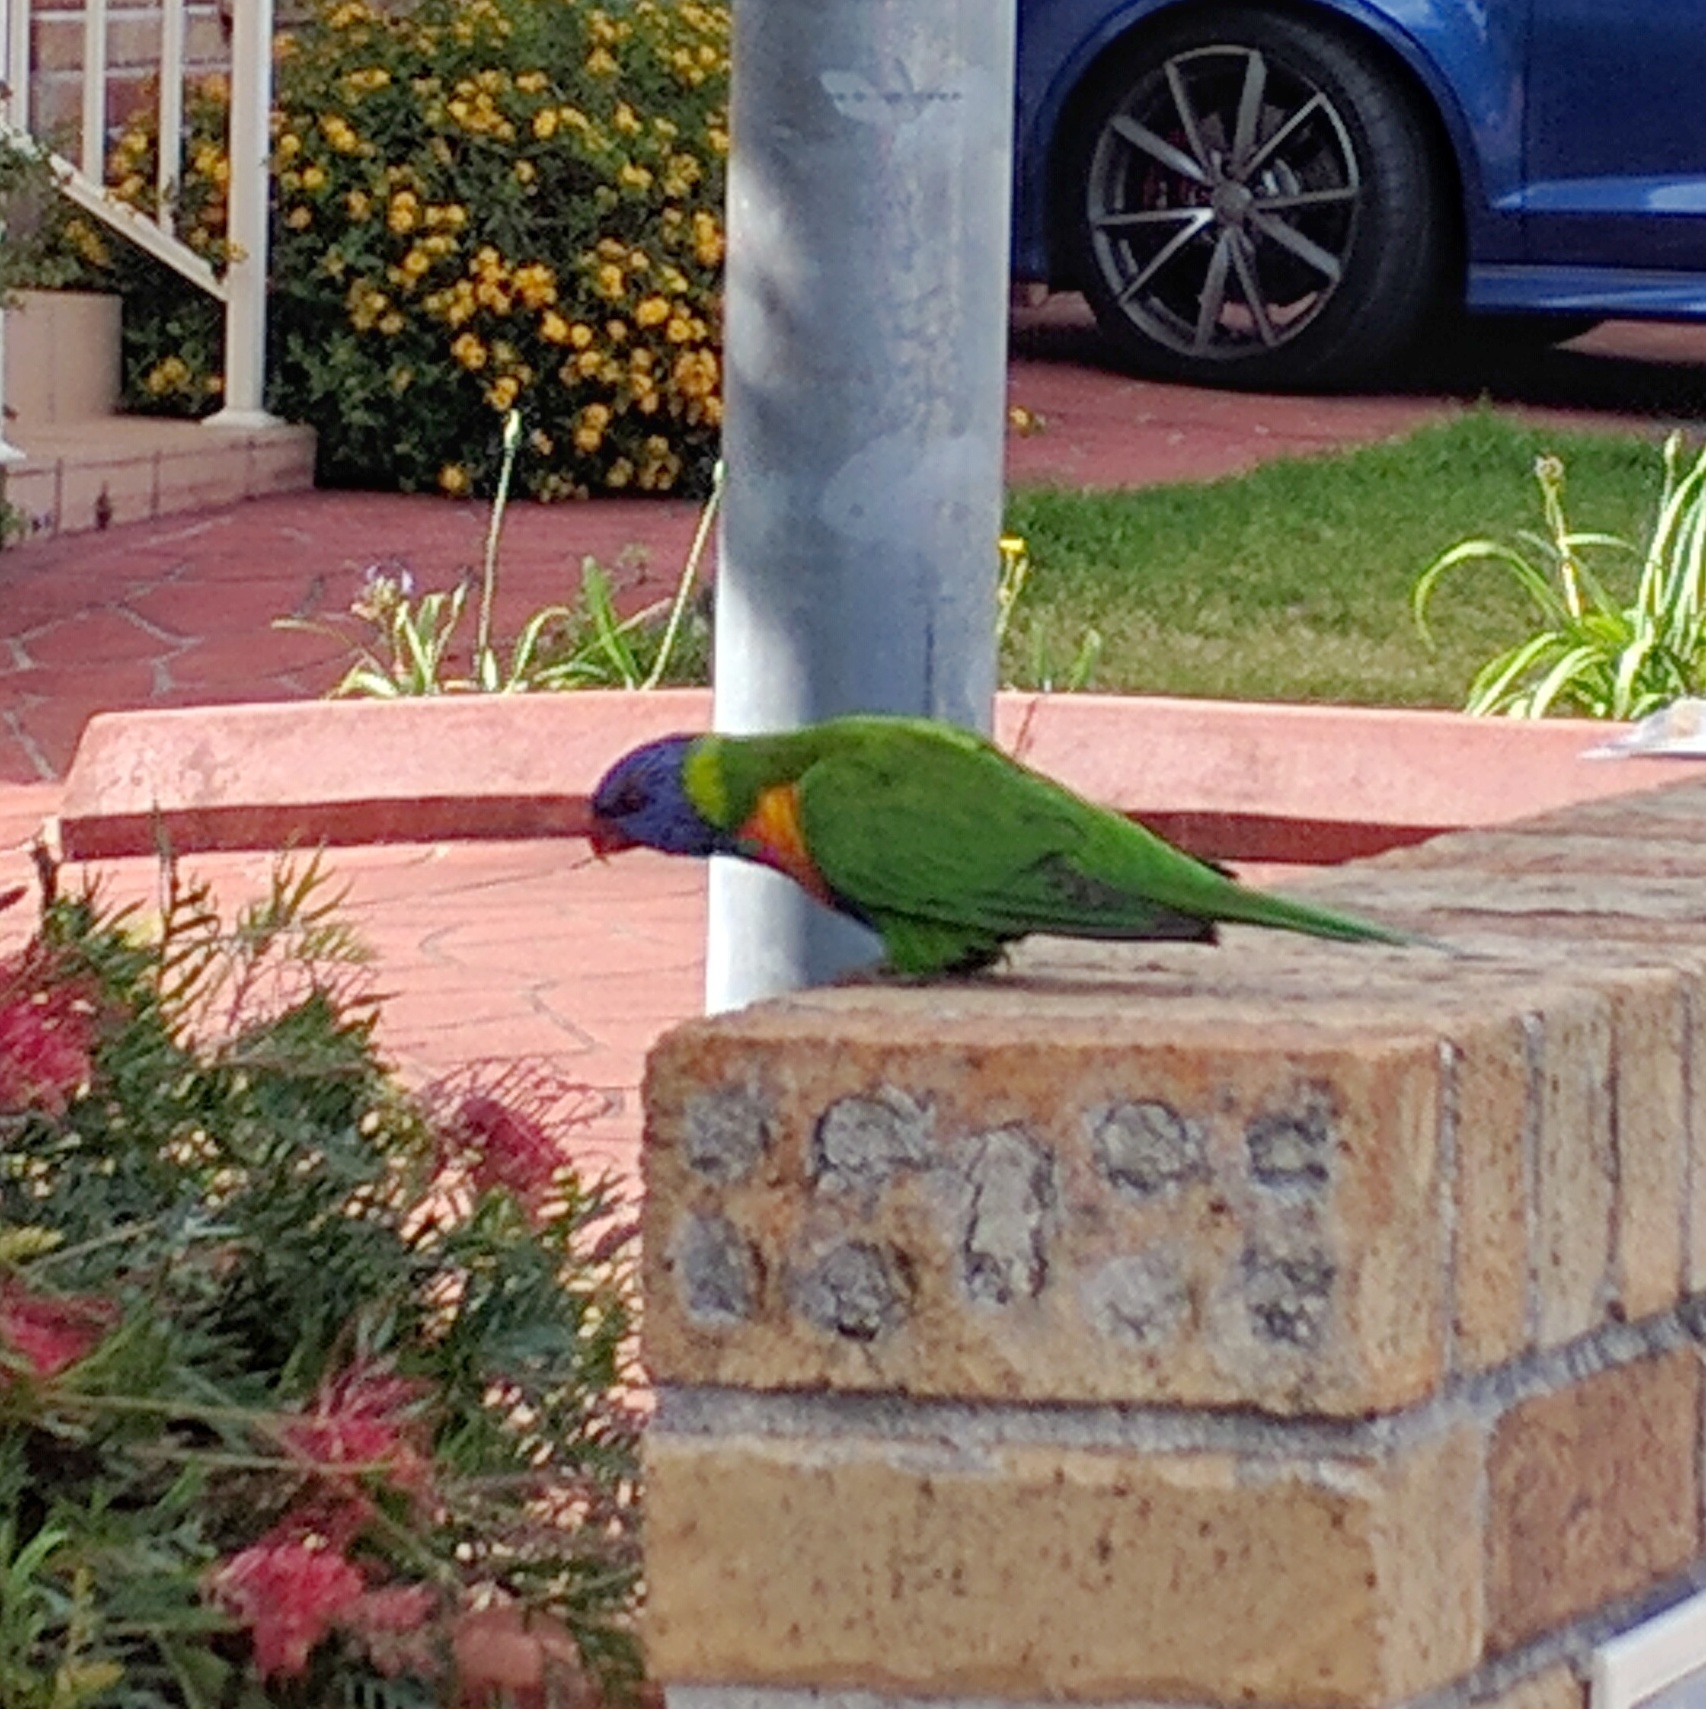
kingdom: Animalia
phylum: Chordata
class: Aves
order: Psittaciformes
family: Psittacidae
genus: Trichoglossus
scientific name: Trichoglossus haematodus
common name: Coconut lorikeet
